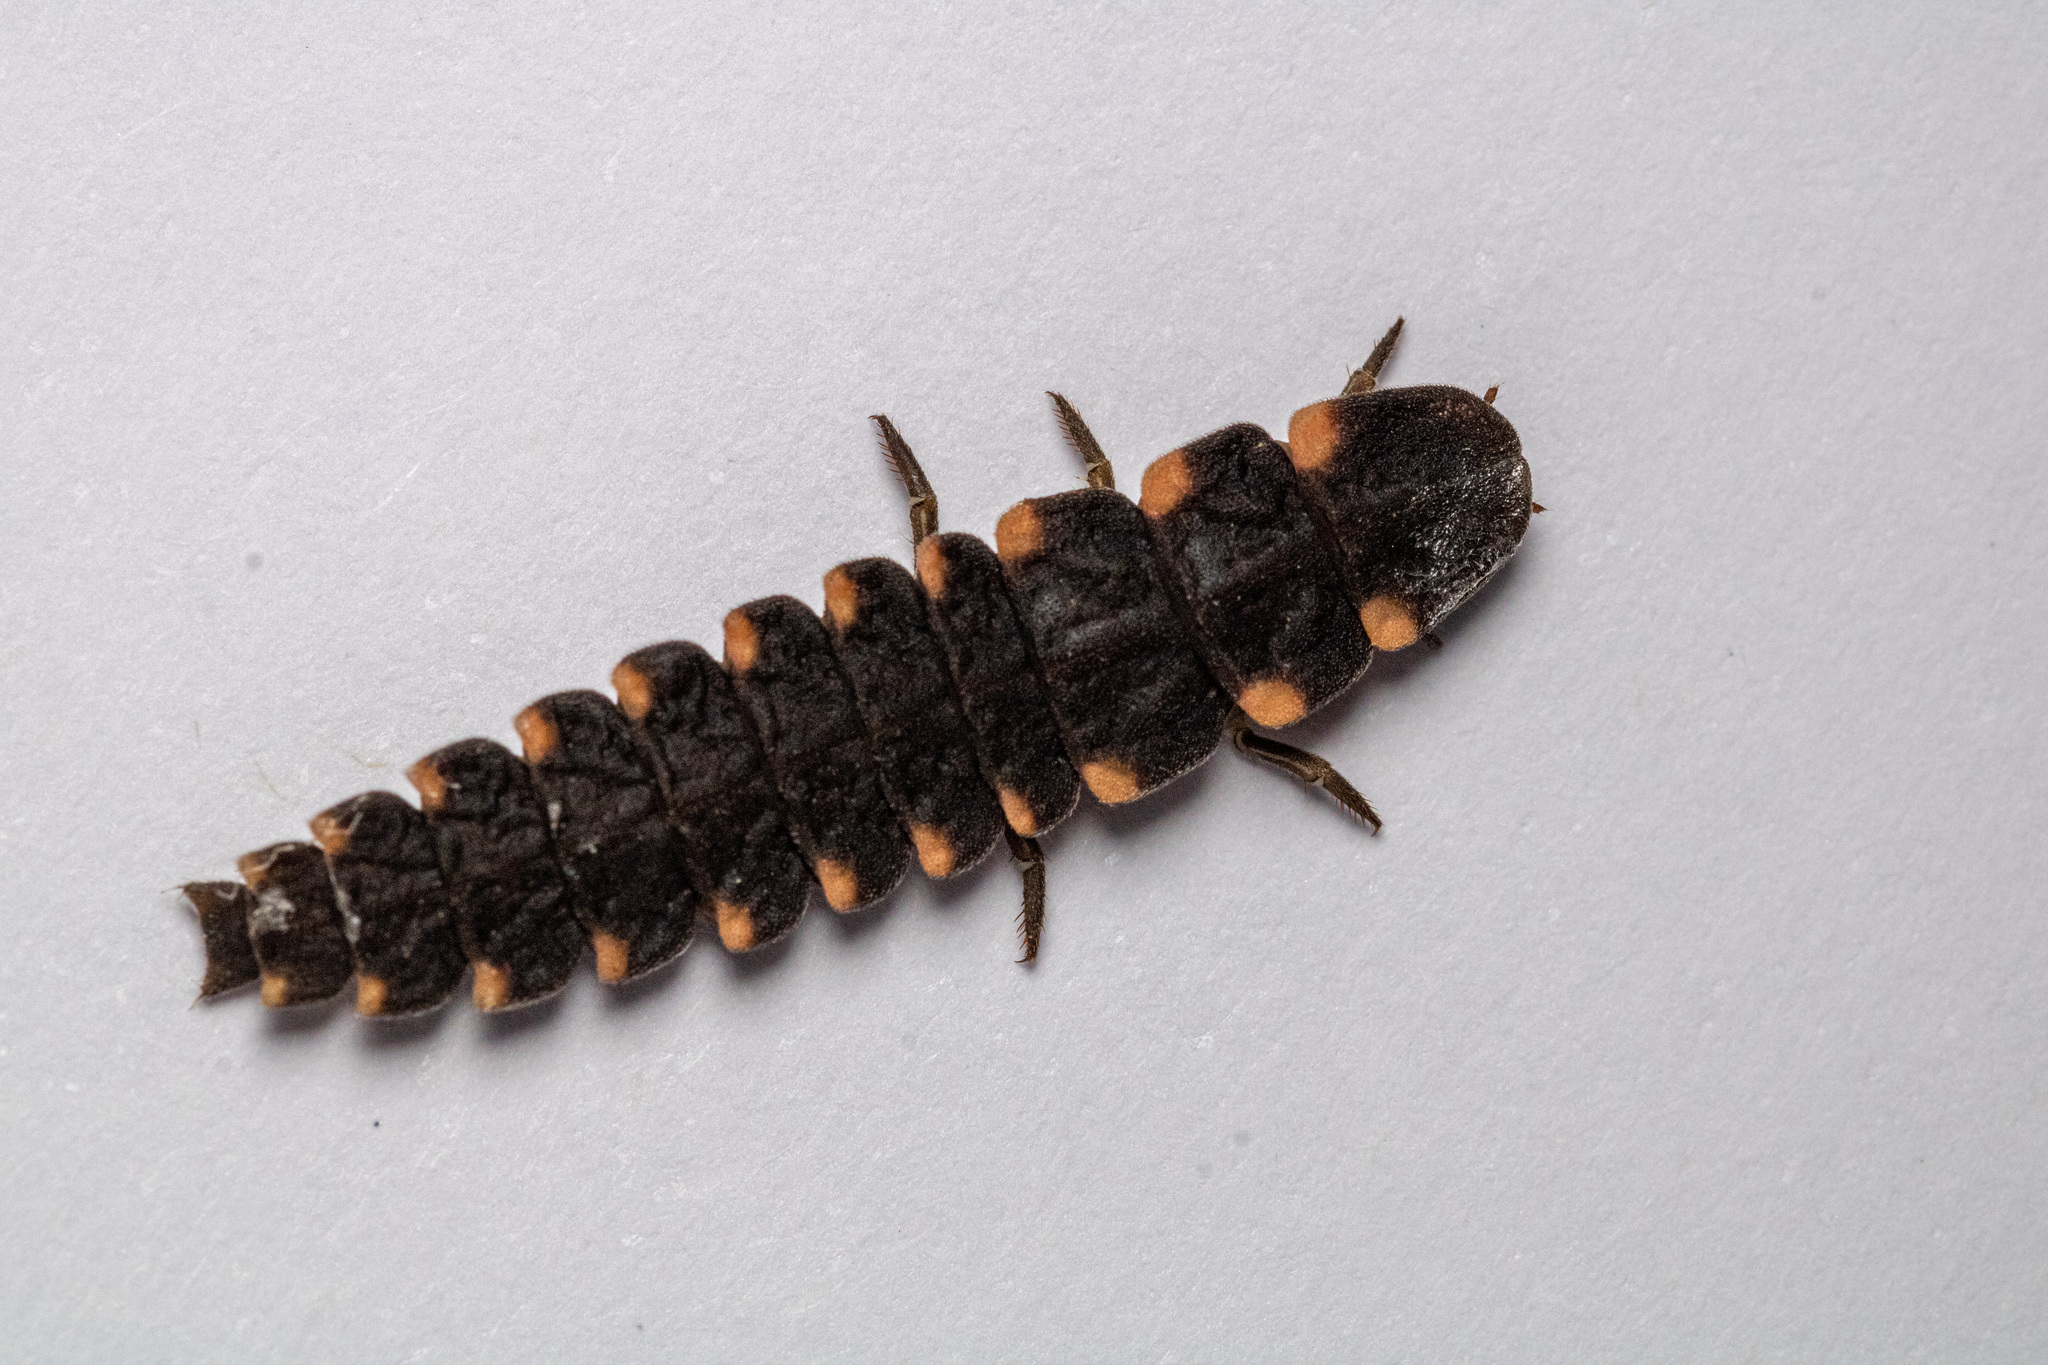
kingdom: Animalia
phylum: Arthropoda
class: Insecta
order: Coleoptera
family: Lampyridae
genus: Lampyris
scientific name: Lampyris noctiluca
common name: Glow-worm
